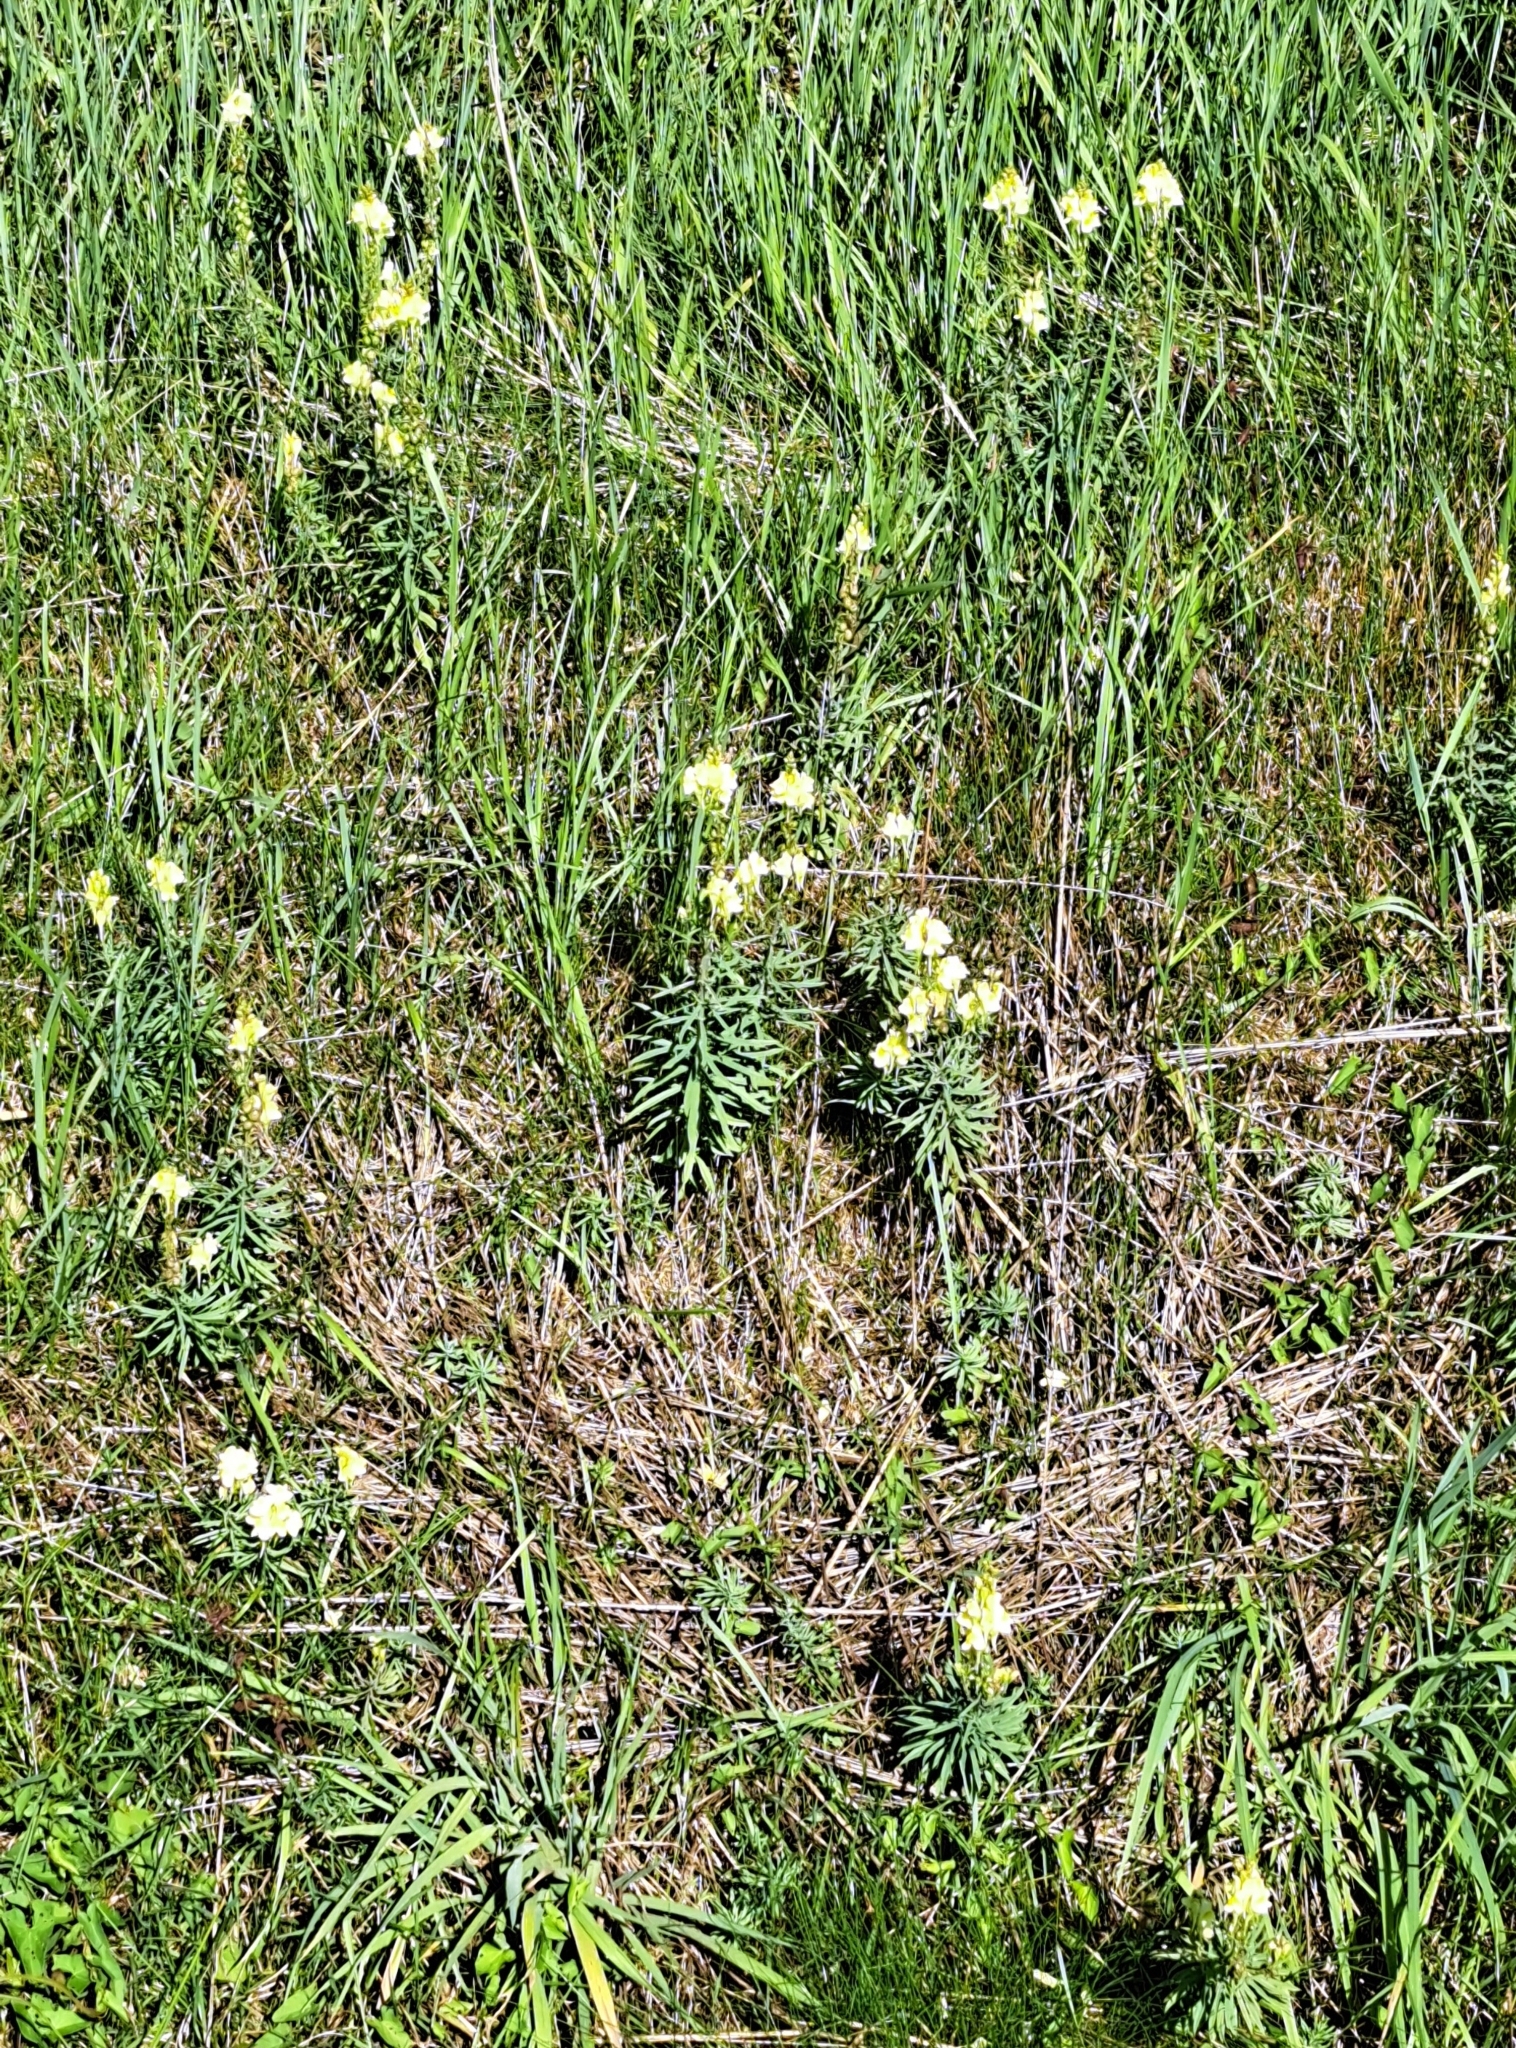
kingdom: Plantae
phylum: Tracheophyta
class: Magnoliopsida
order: Lamiales
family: Plantaginaceae
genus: Linaria
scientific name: Linaria vulgaris
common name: Butter and eggs
